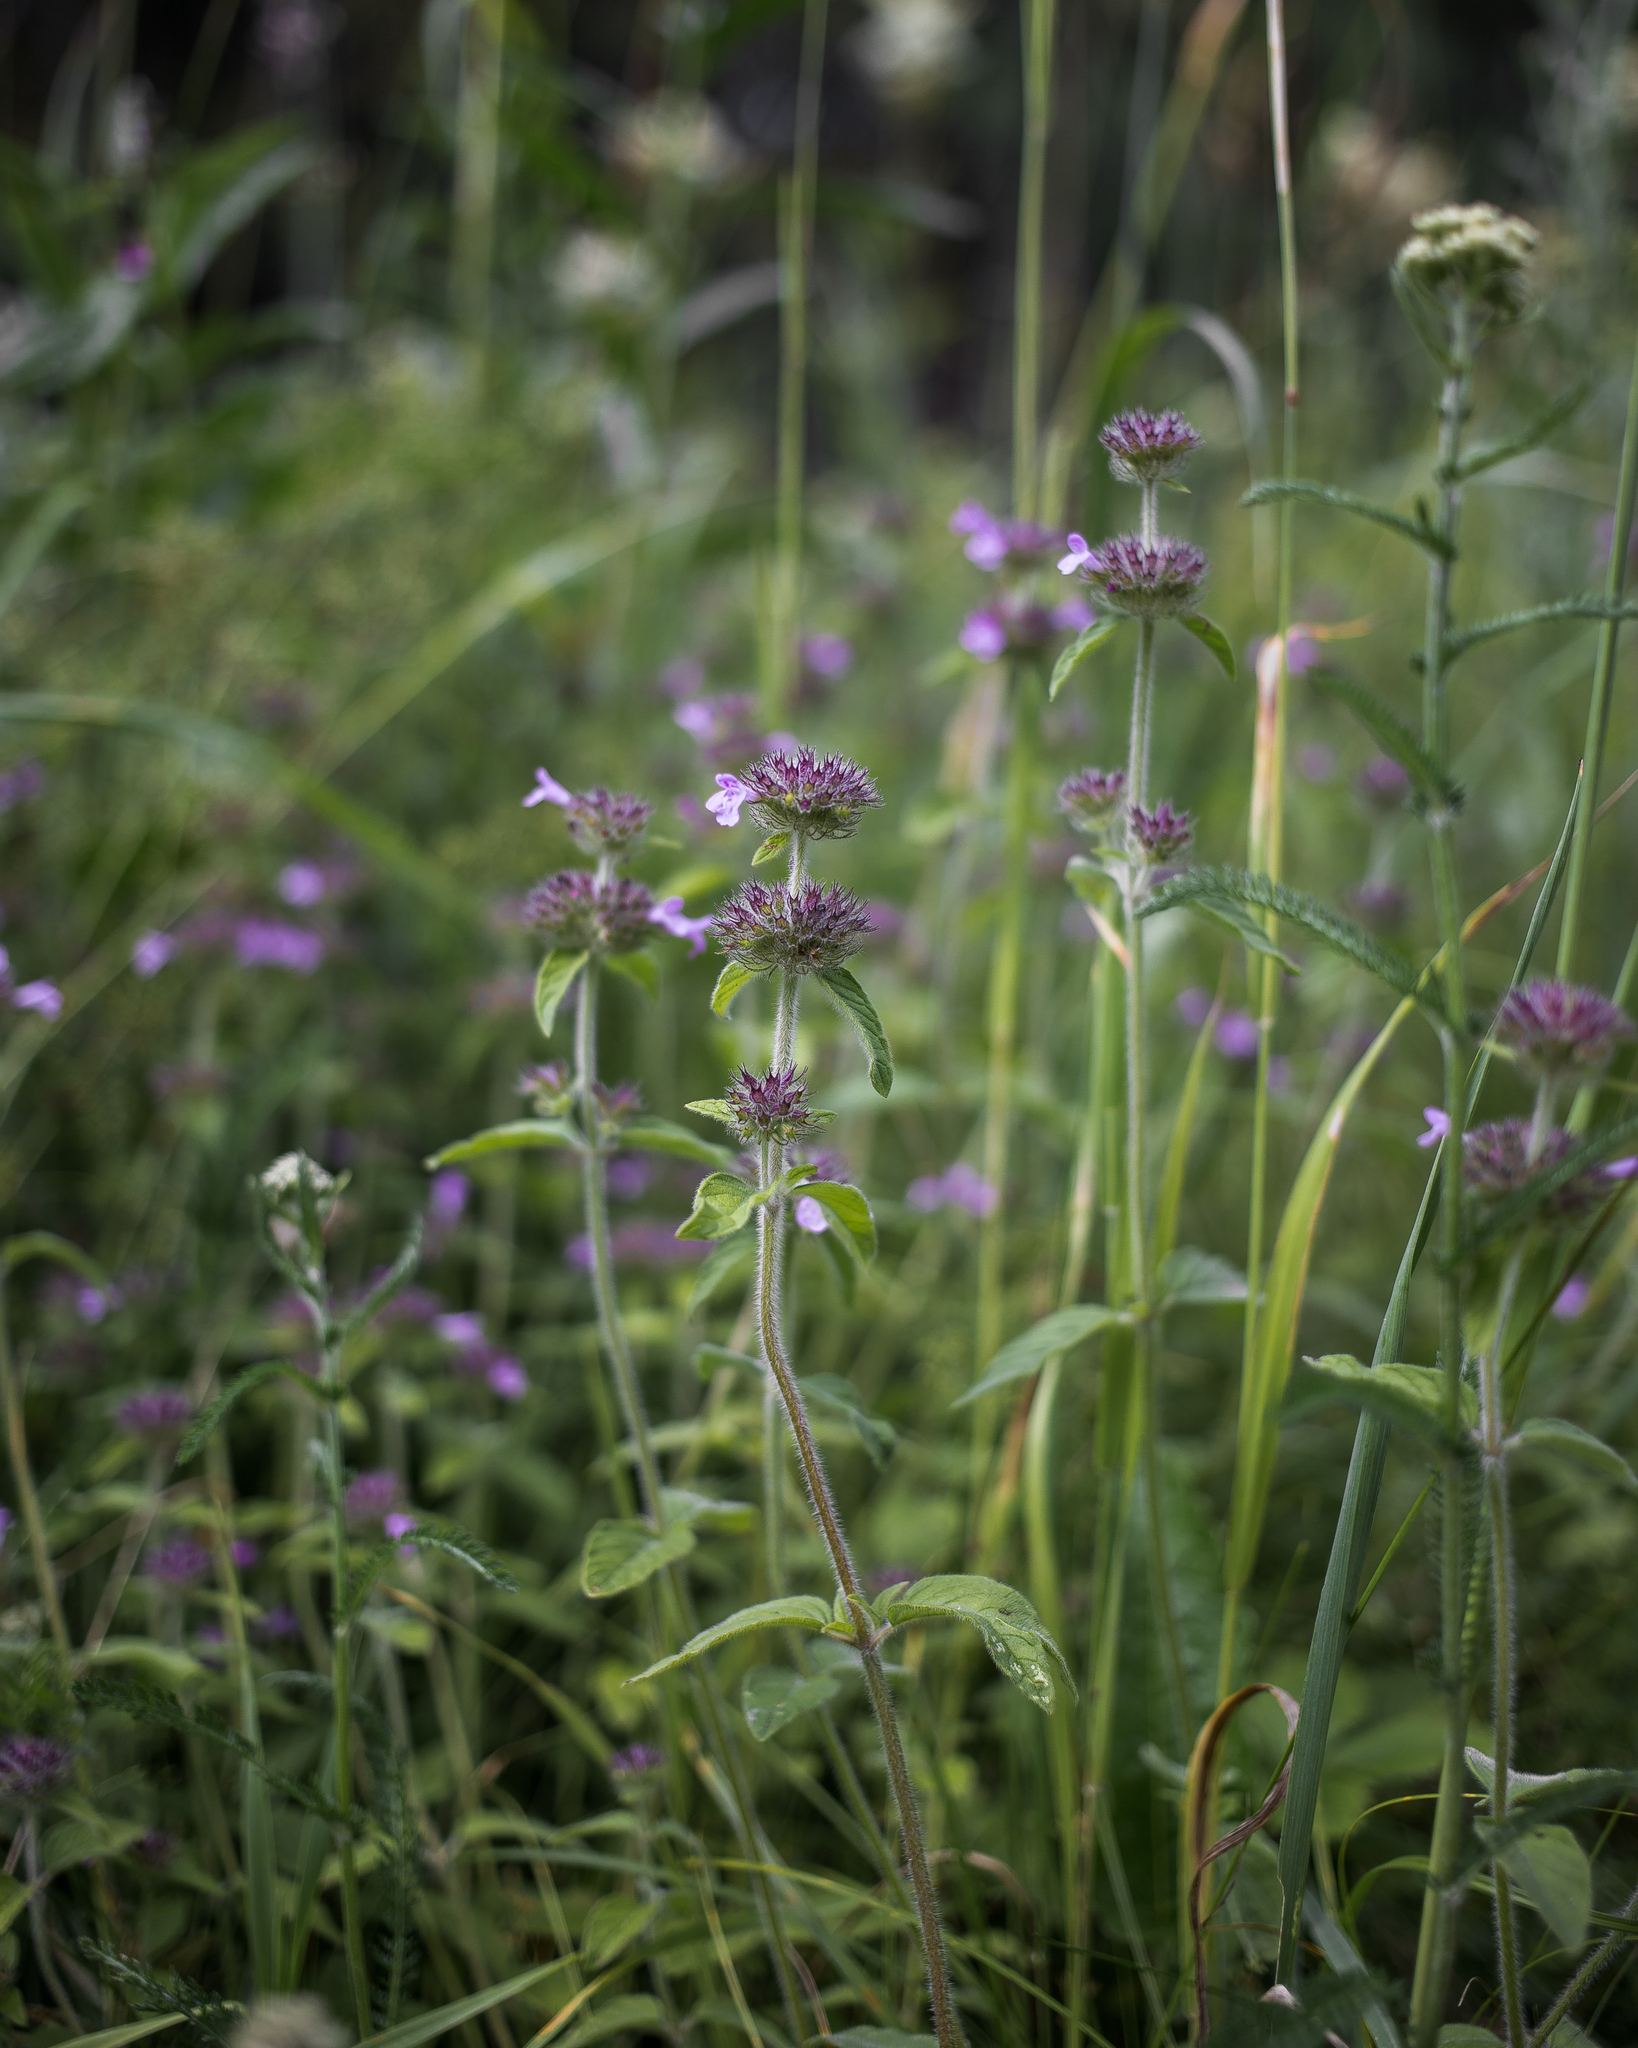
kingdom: Plantae
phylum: Tracheophyta
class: Magnoliopsida
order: Lamiales
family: Lamiaceae
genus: Clinopodium
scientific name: Clinopodium vulgare
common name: Wild basil
